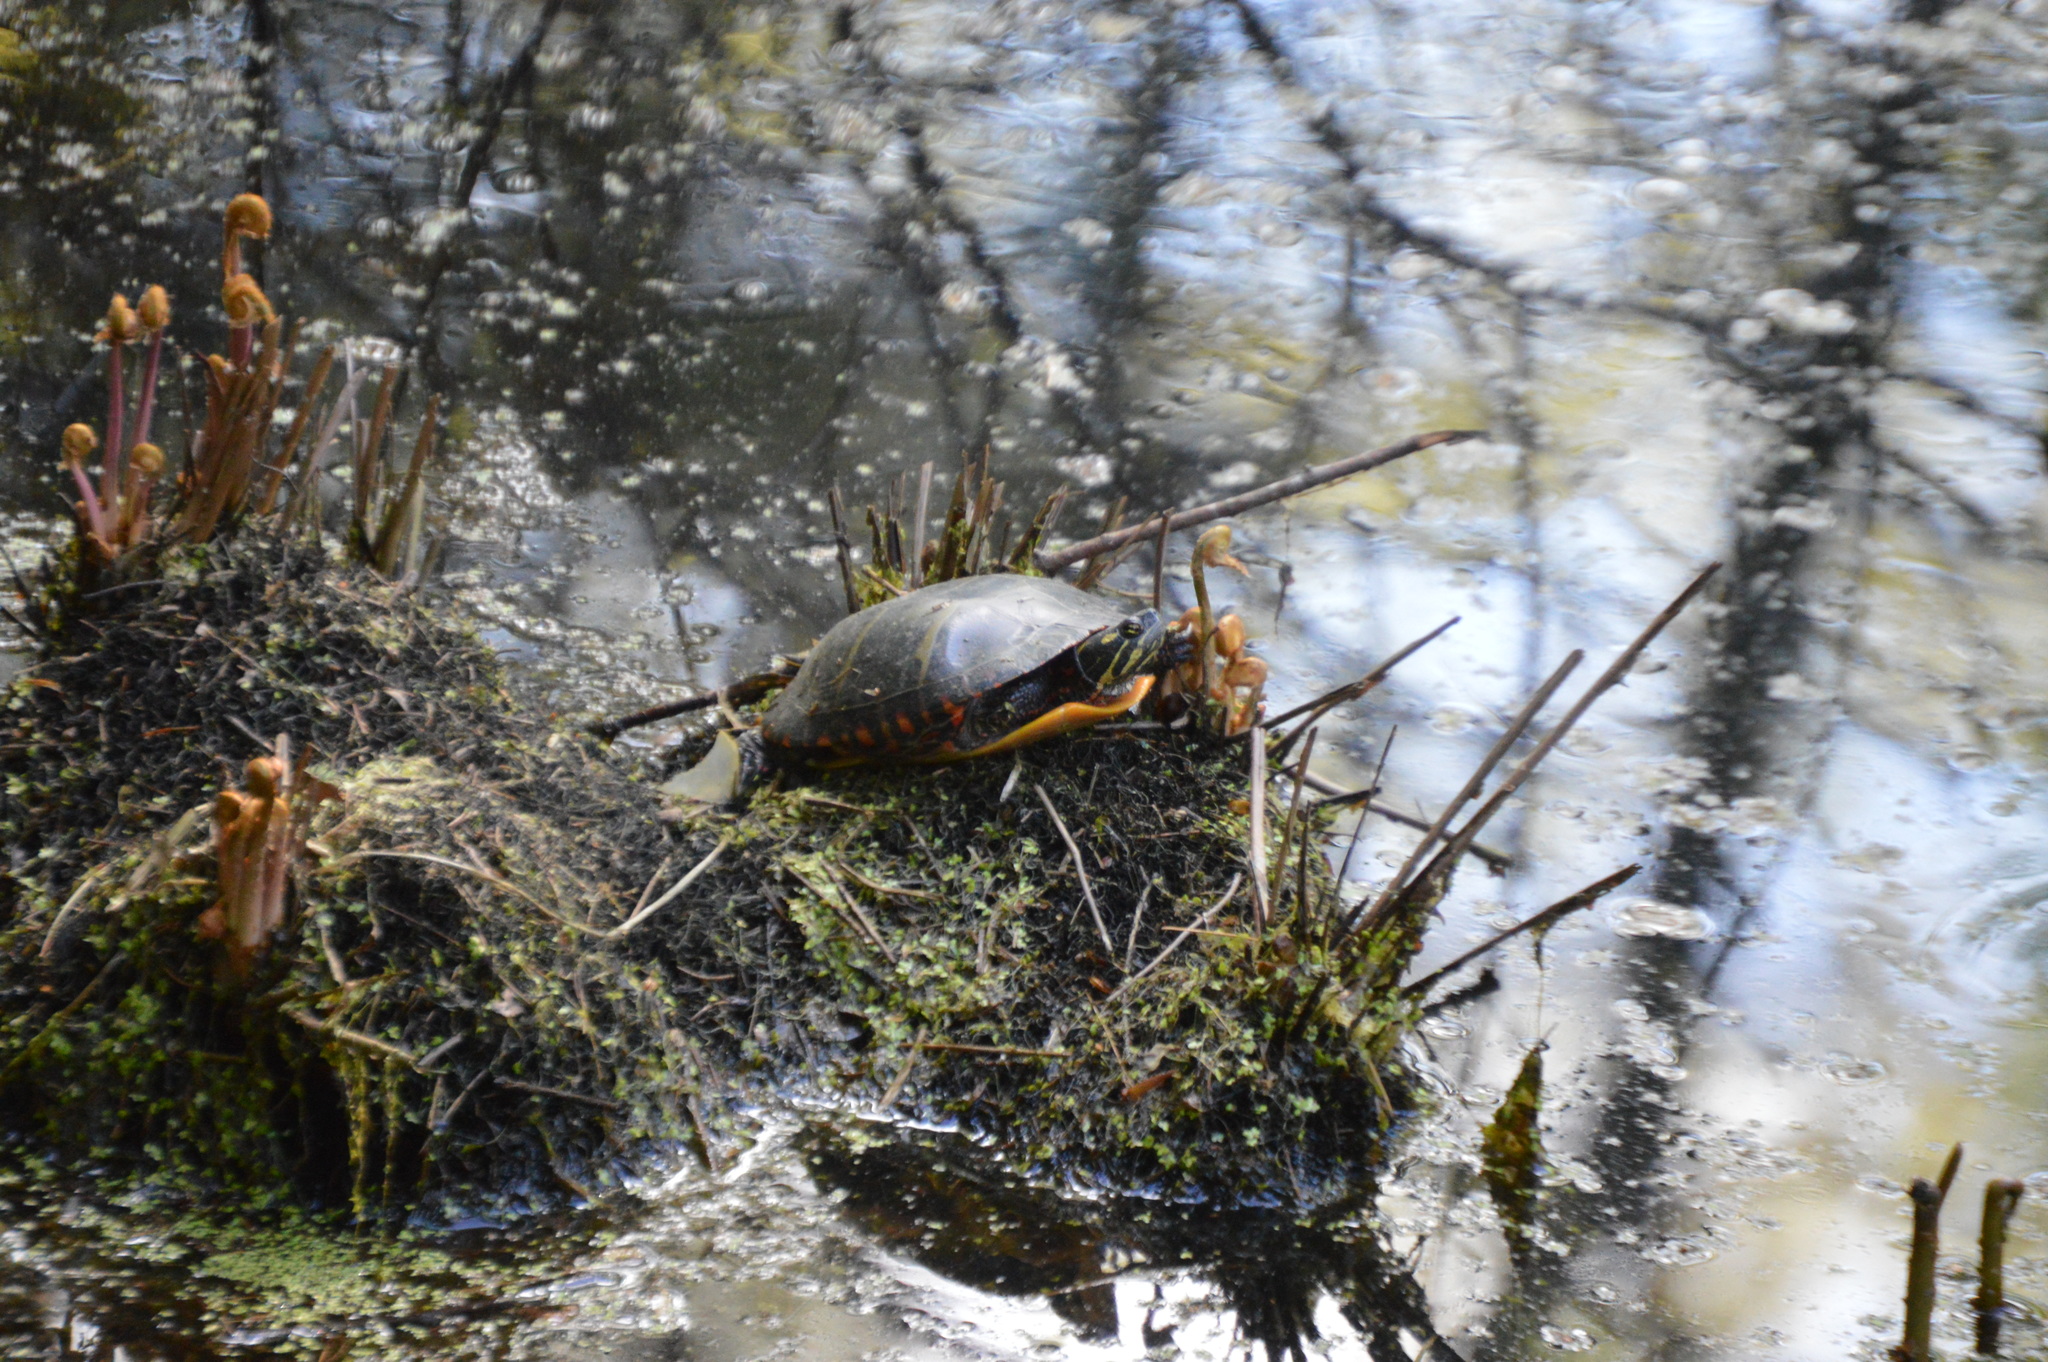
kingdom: Animalia
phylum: Chordata
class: Testudines
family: Emydidae
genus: Chrysemys
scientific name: Chrysemys picta
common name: Painted turtle
